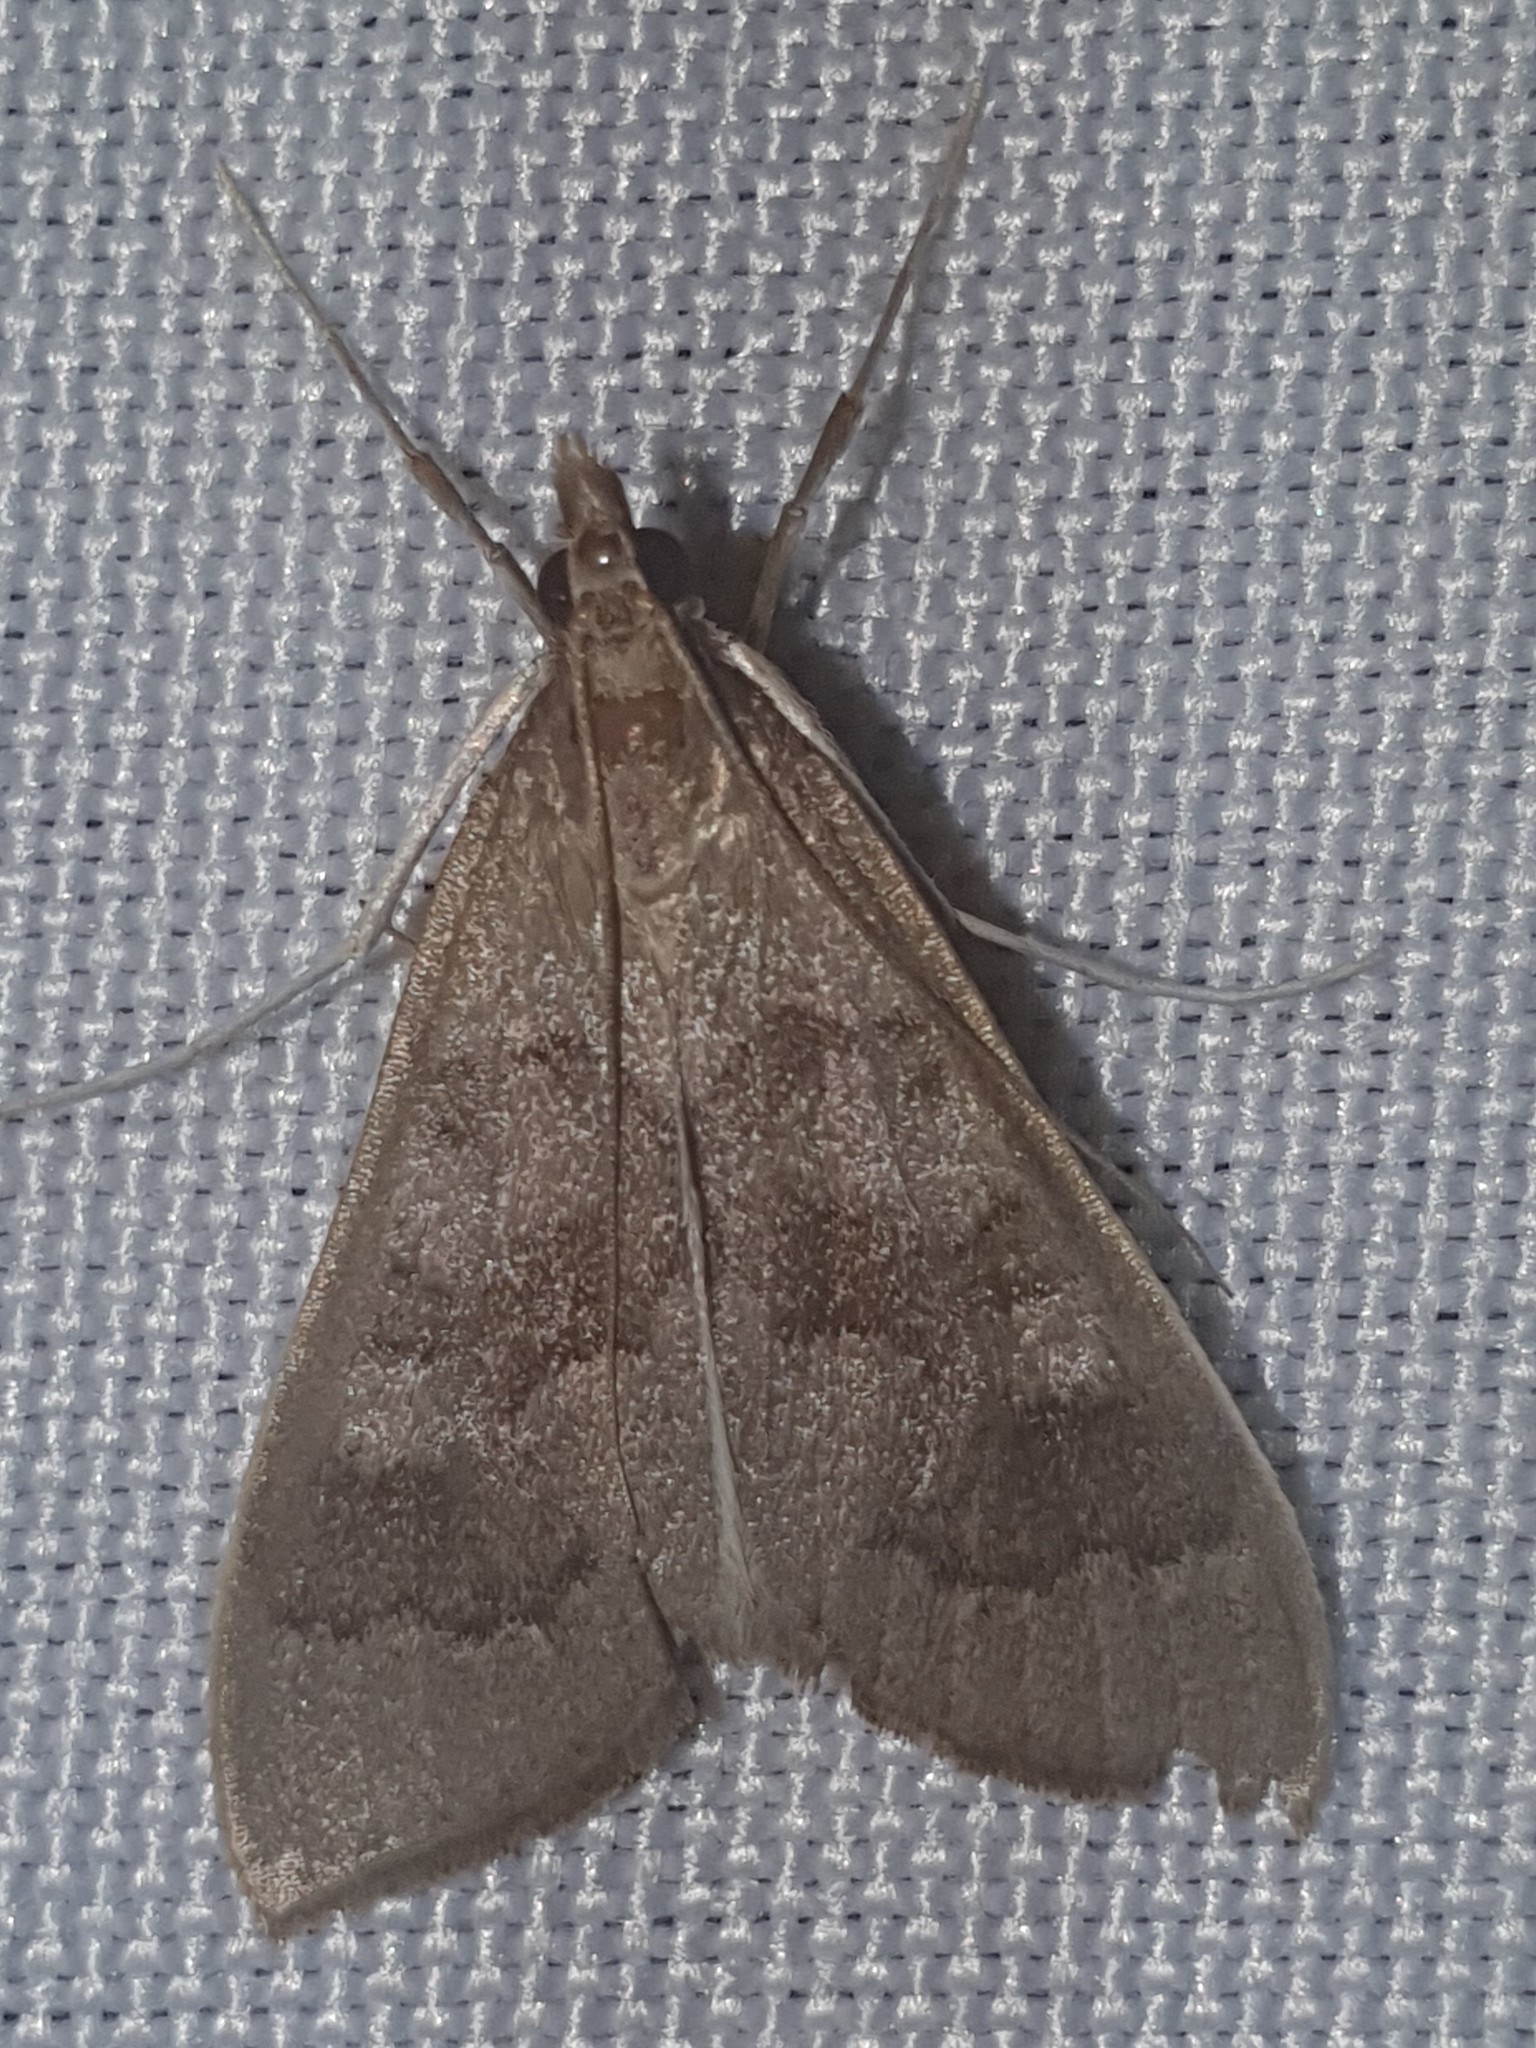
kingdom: Animalia
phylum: Arthropoda
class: Insecta
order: Lepidoptera
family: Crambidae
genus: Mecyna
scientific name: Mecyna asinalis
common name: Coastal pearl
